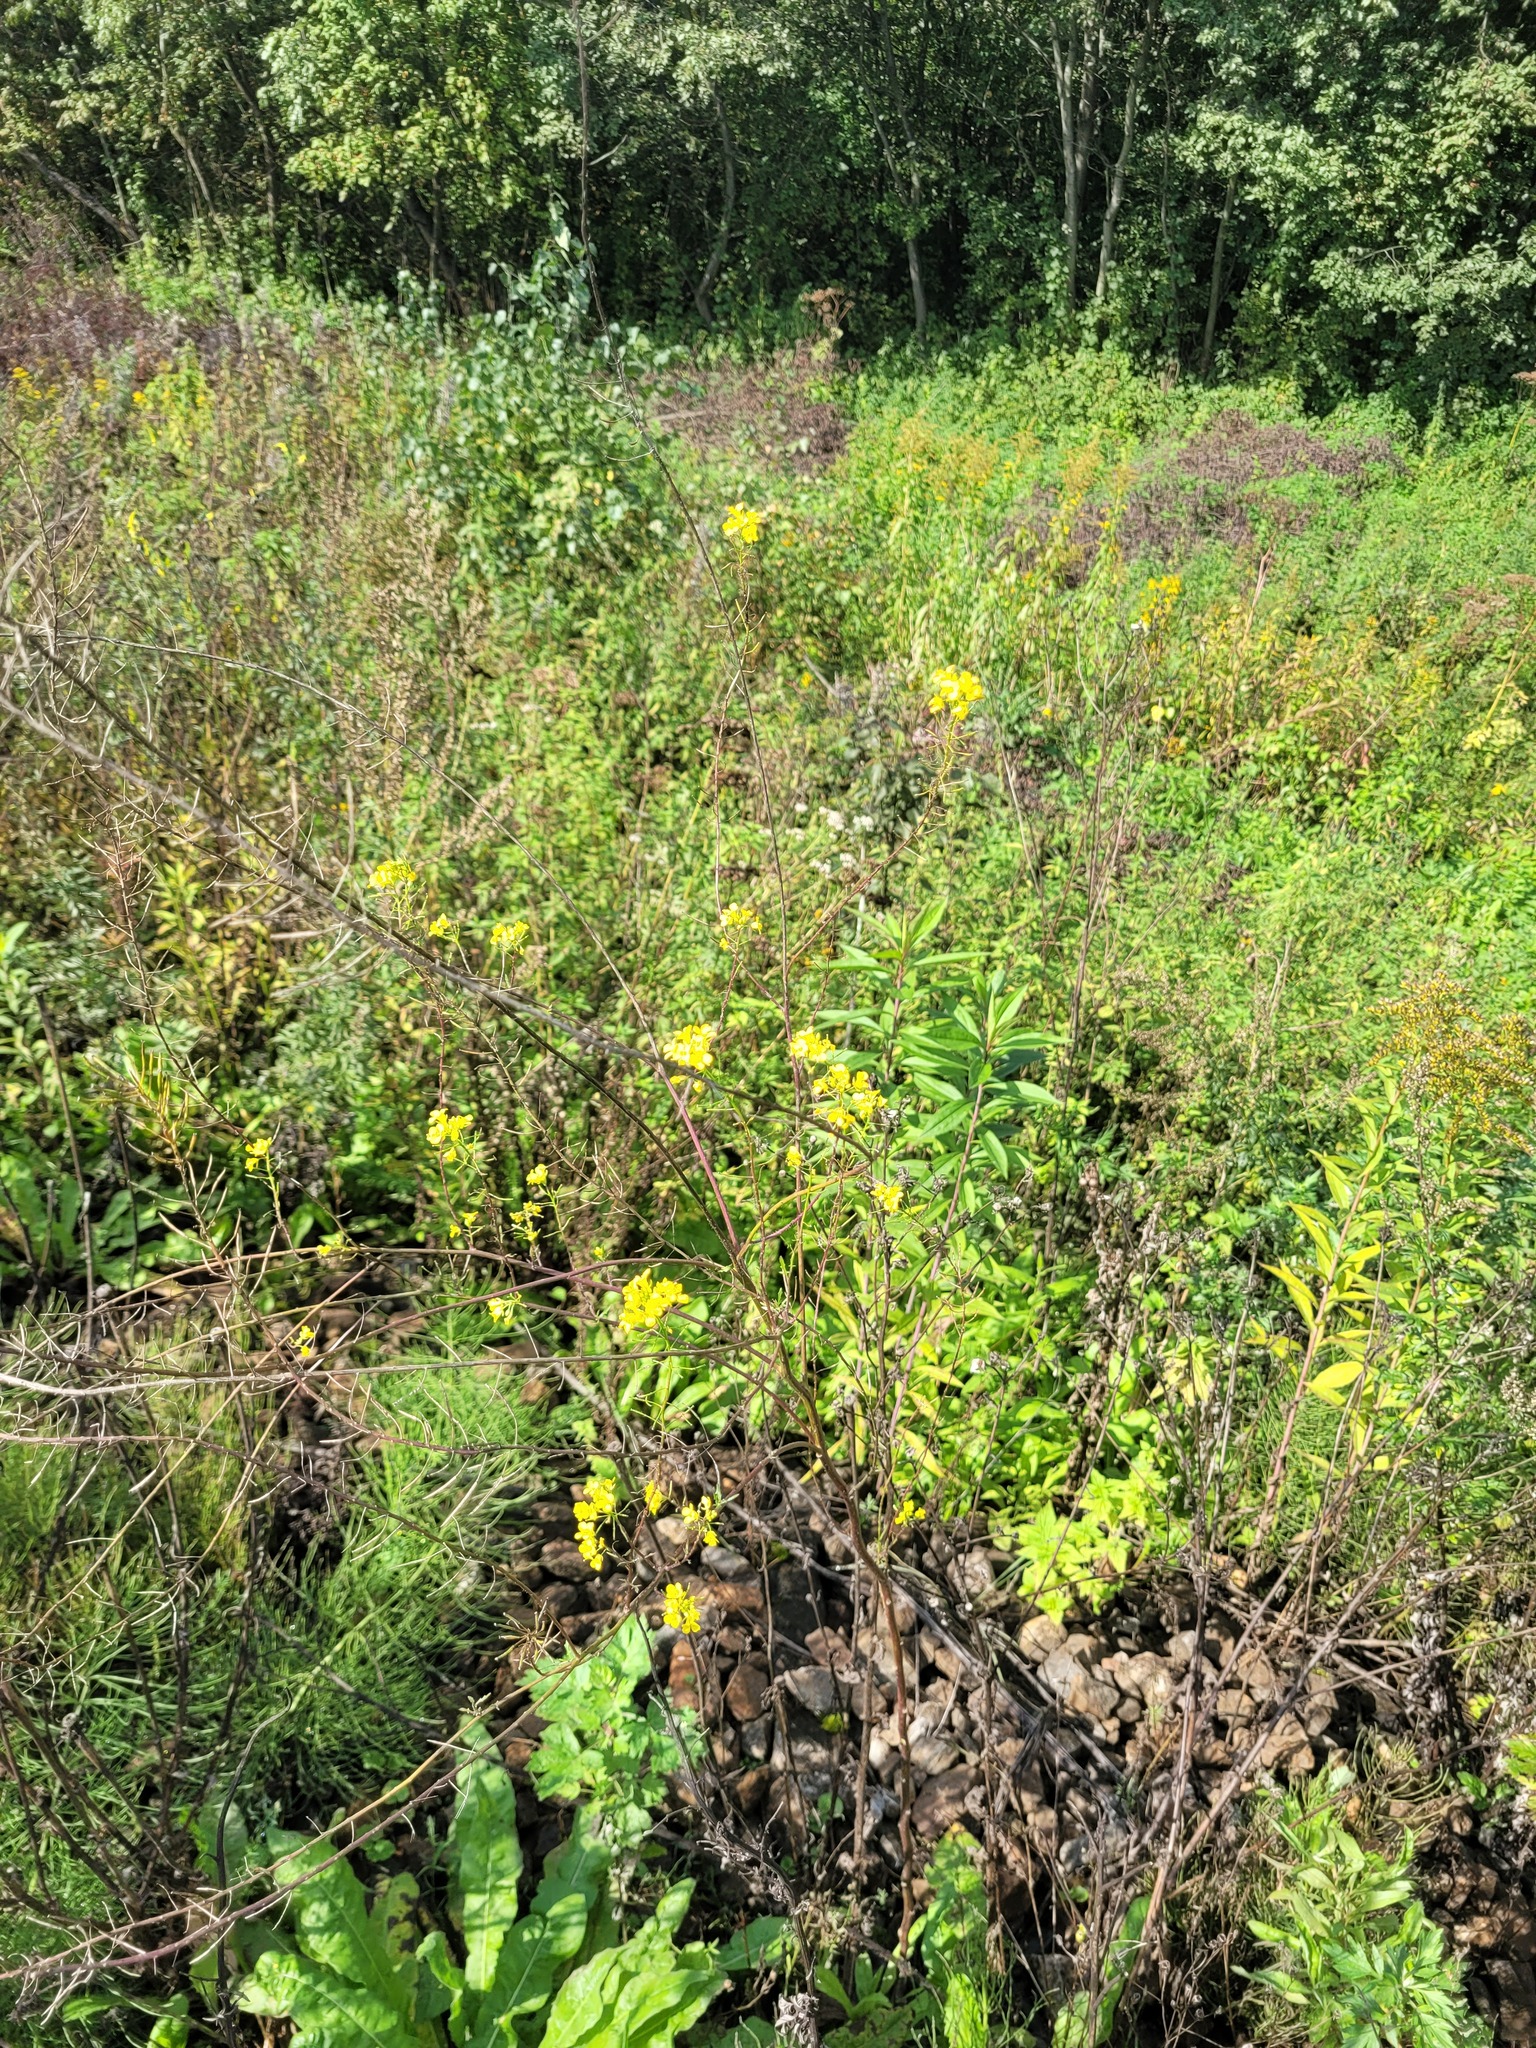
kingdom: Plantae
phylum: Tracheophyta
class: Magnoliopsida
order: Brassicales
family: Brassicaceae
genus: Sisymbrium
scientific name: Sisymbrium loeselii
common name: False london-rocket
